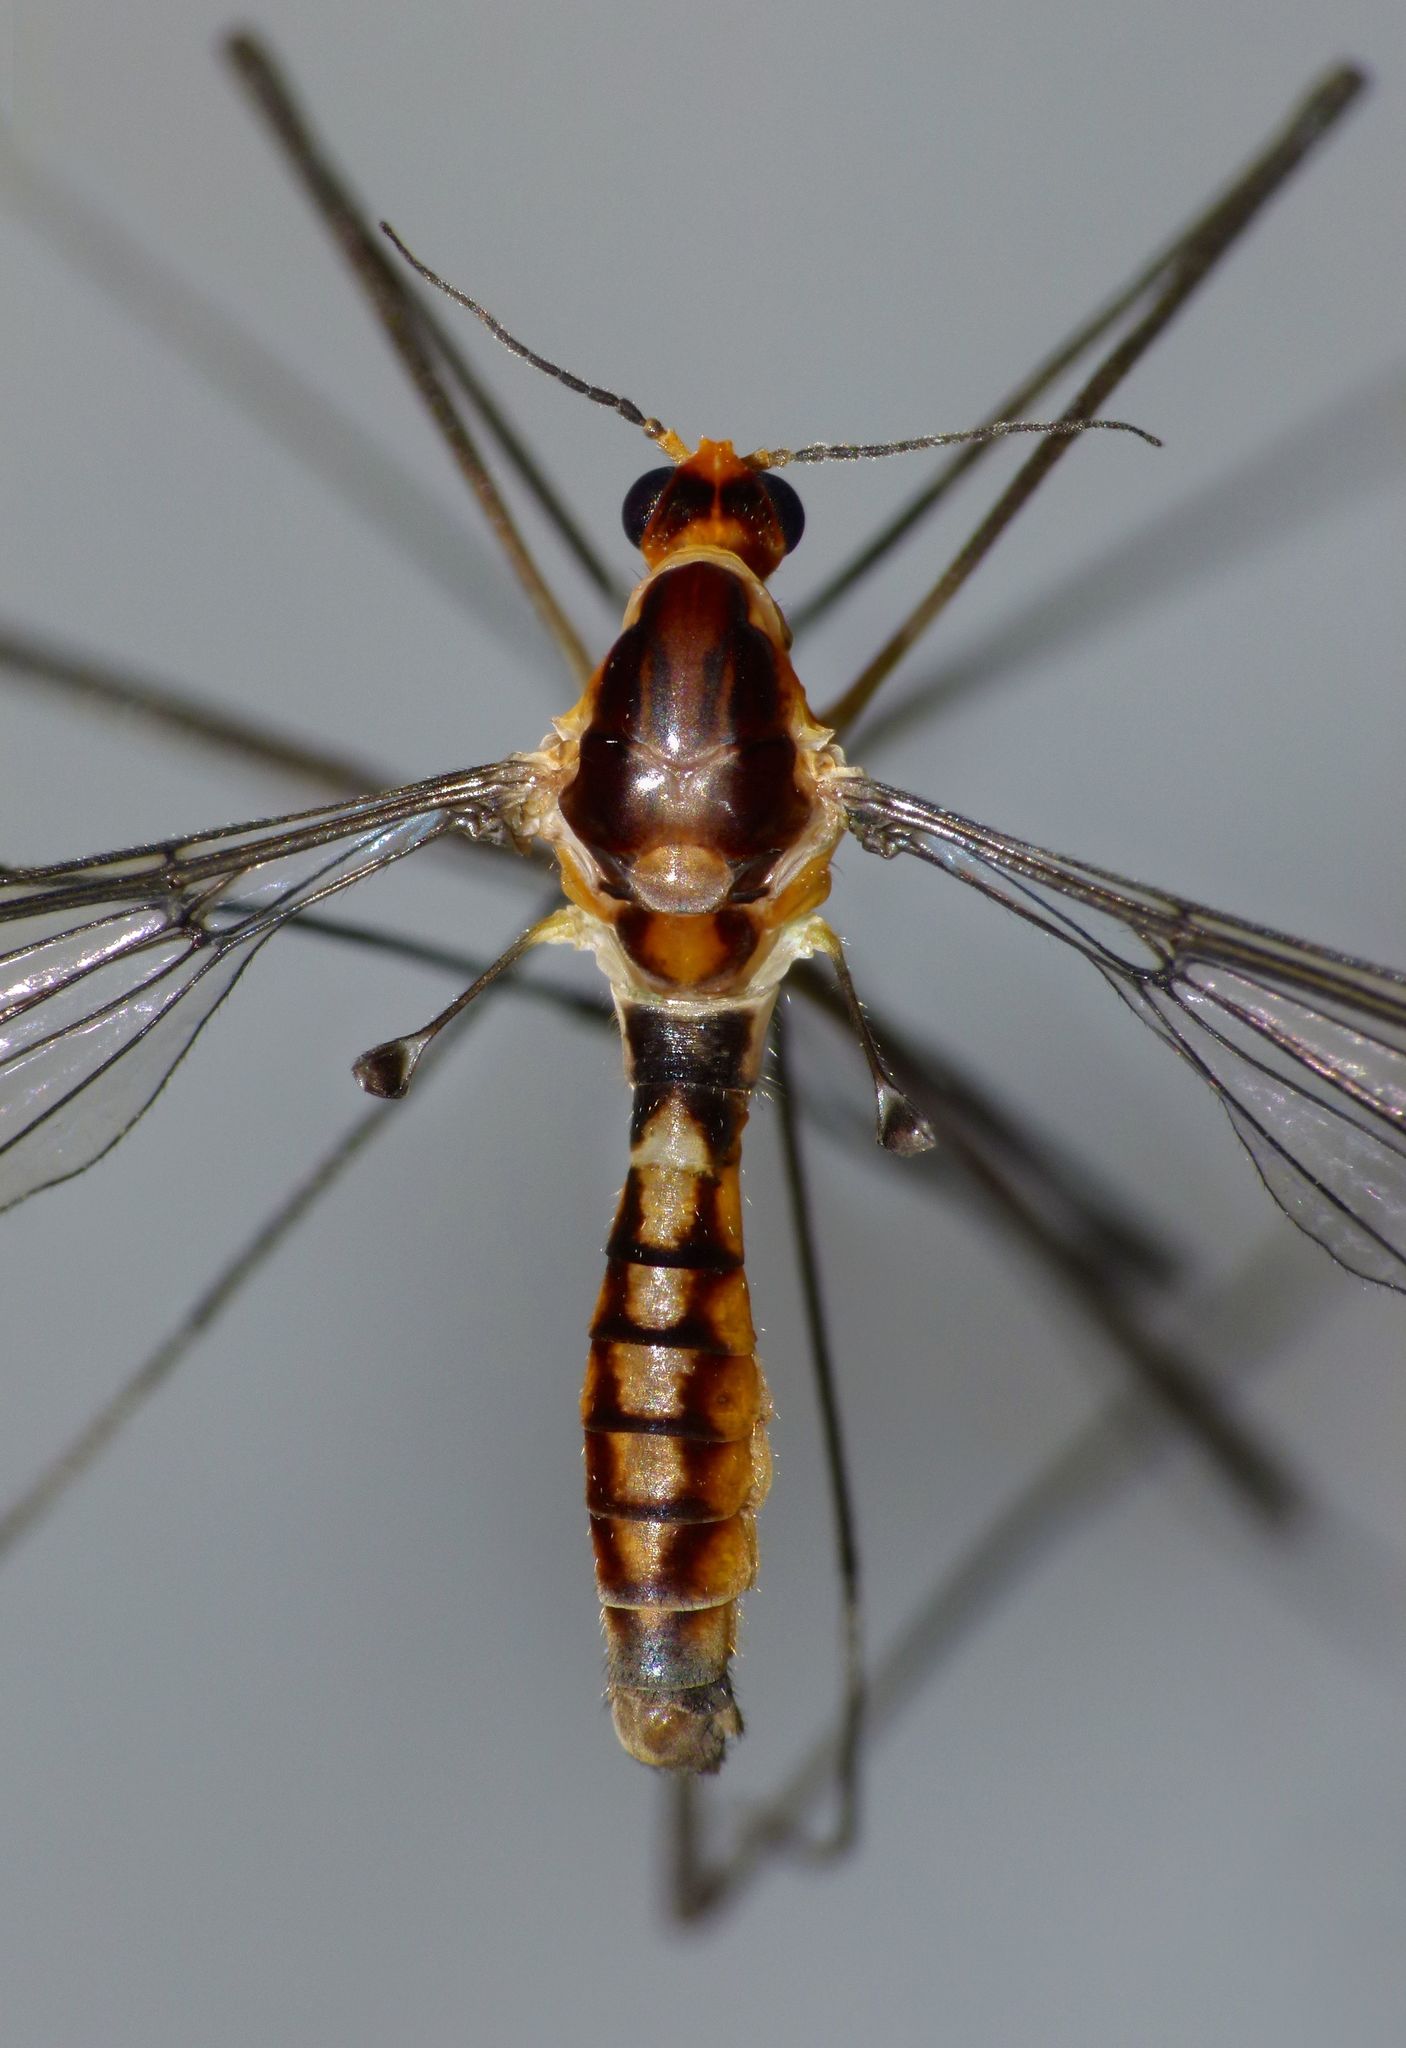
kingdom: Animalia
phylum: Arthropoda
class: Insecta
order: Diptera
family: Tipulidae
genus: Leptotarsus
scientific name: Leptotarsus subtener
